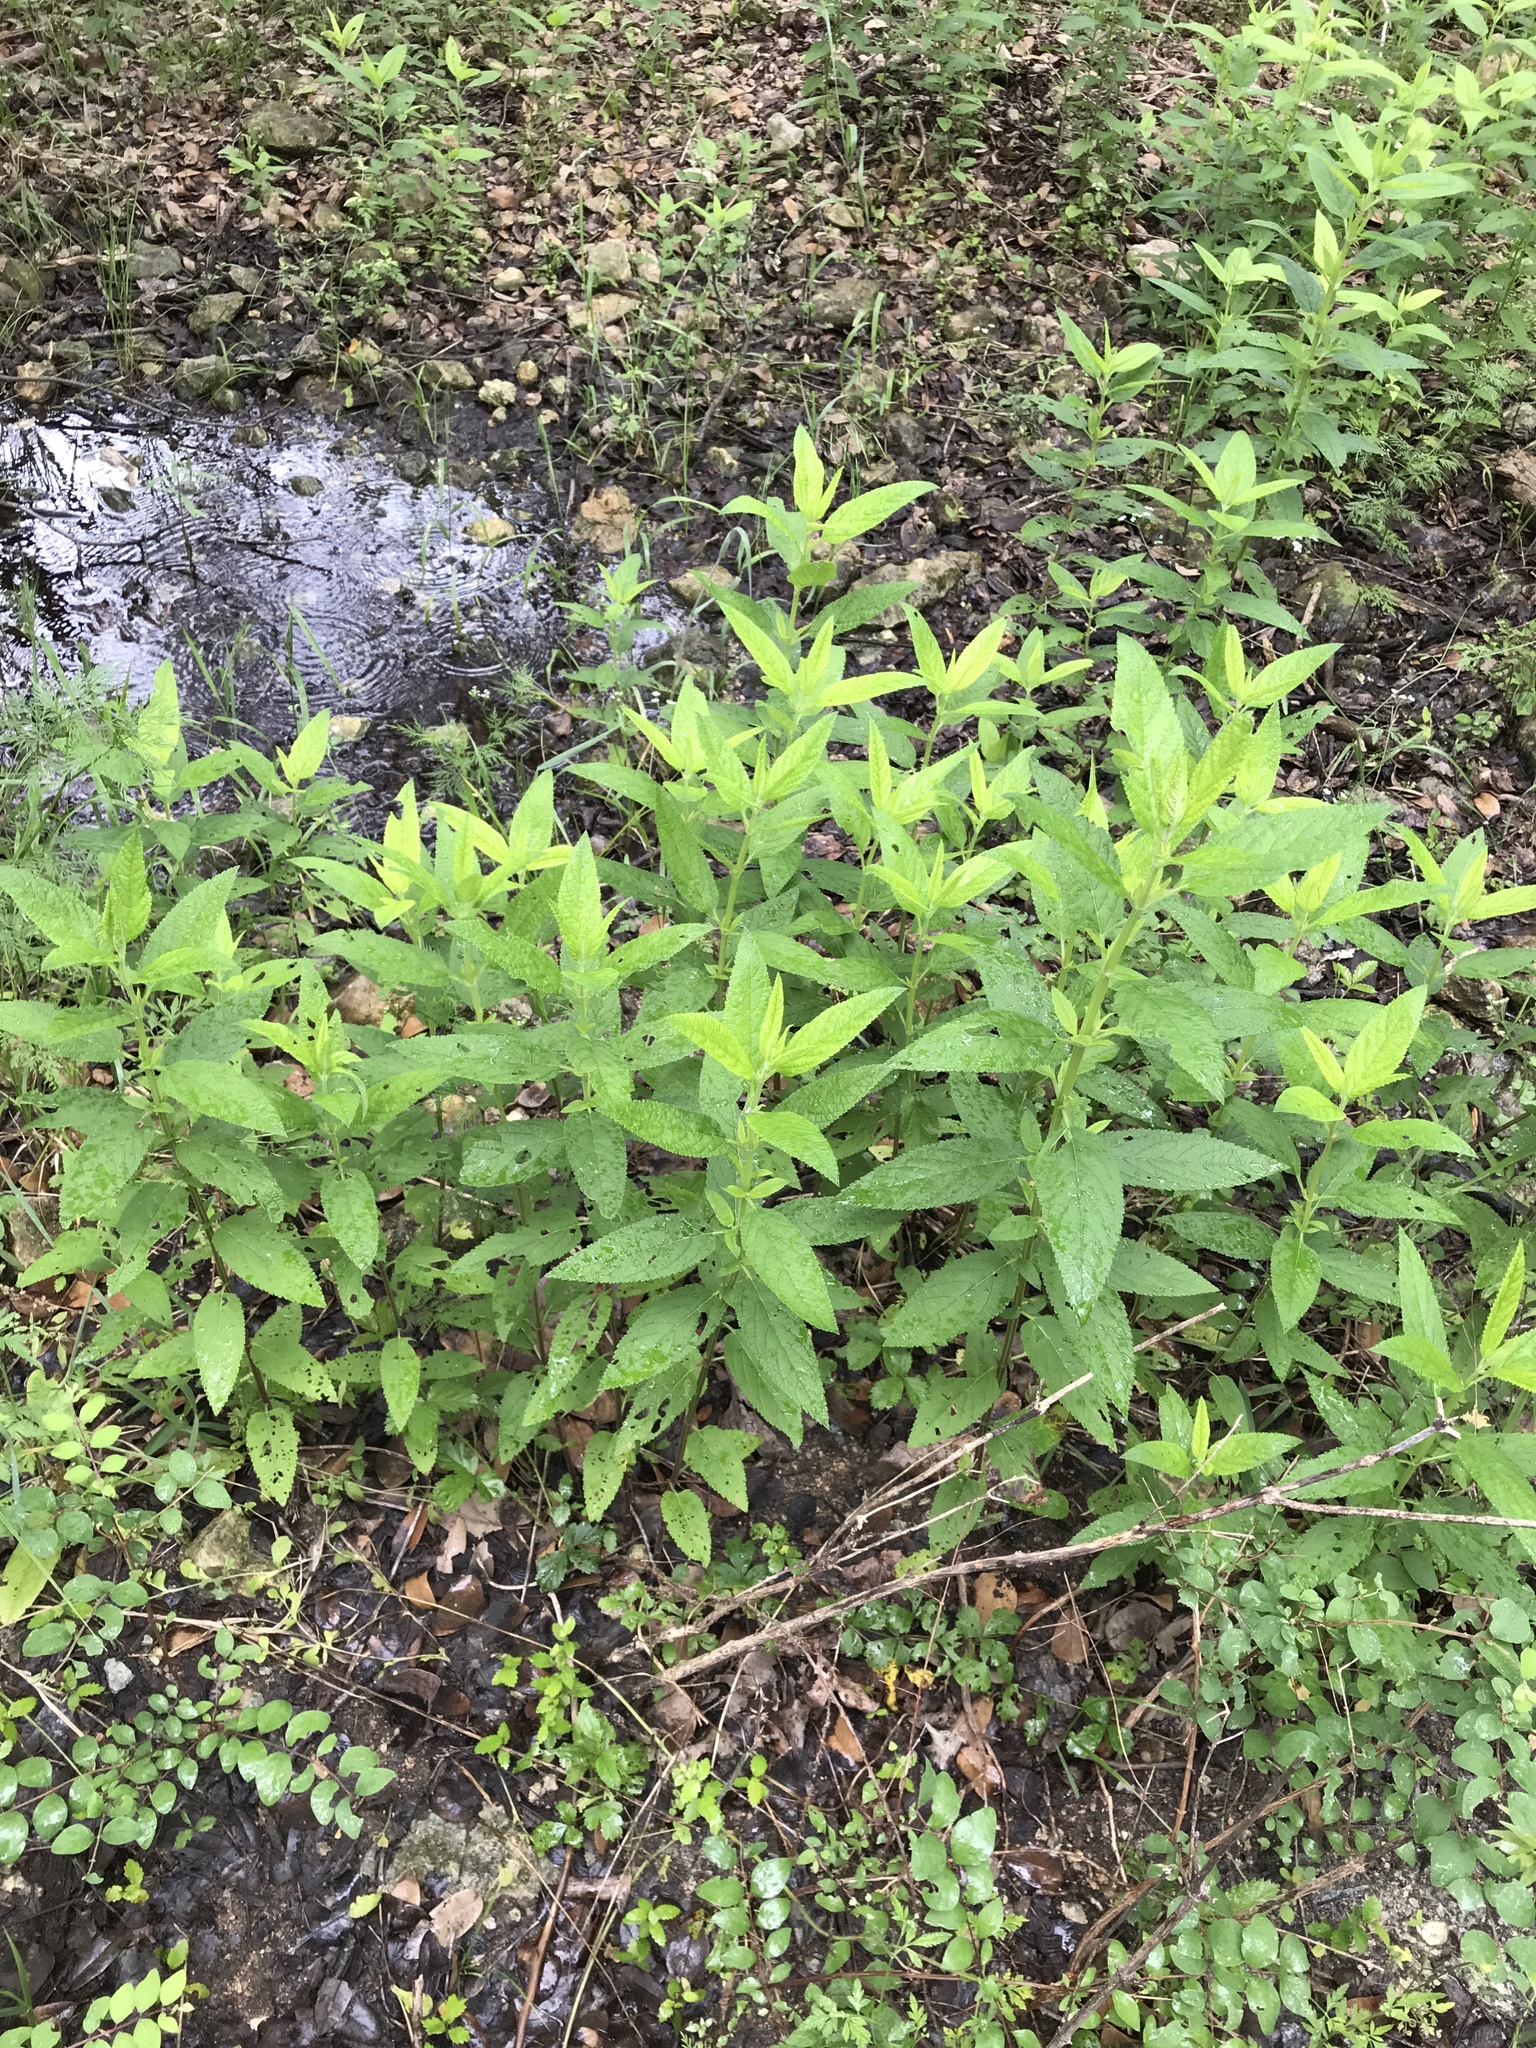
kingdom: Plantae
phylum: Tracheophyta
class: Magnoliopsida
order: Lamiales
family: Lamiaceae
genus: Teucrium
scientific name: Teucrium canadense
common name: American germander
